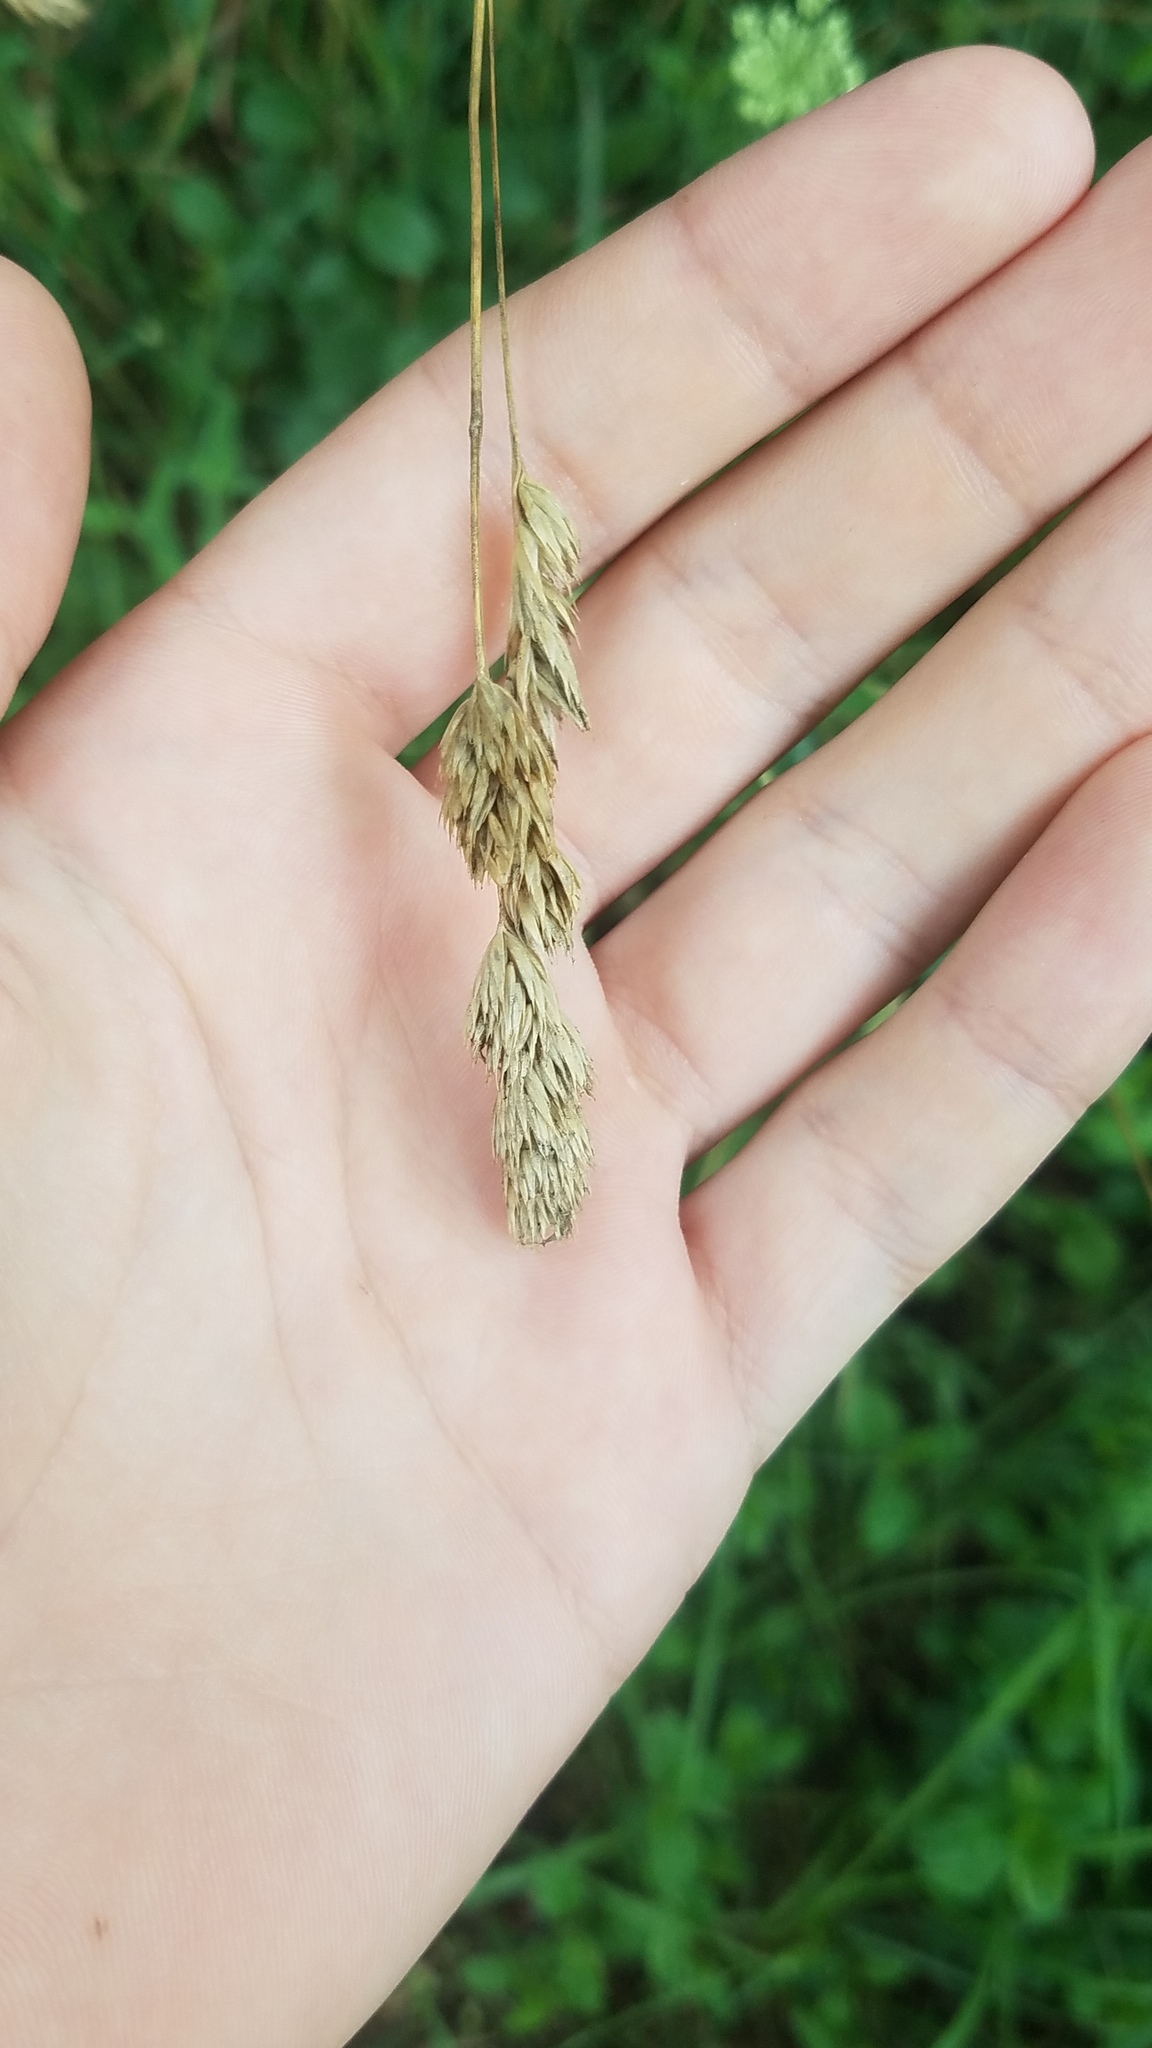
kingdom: Plantae
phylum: Tracheophyta
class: Liliopsida
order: Poales
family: Poaceae
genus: Dactylis
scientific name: Dactylis glomerata
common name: Orchardgrass
